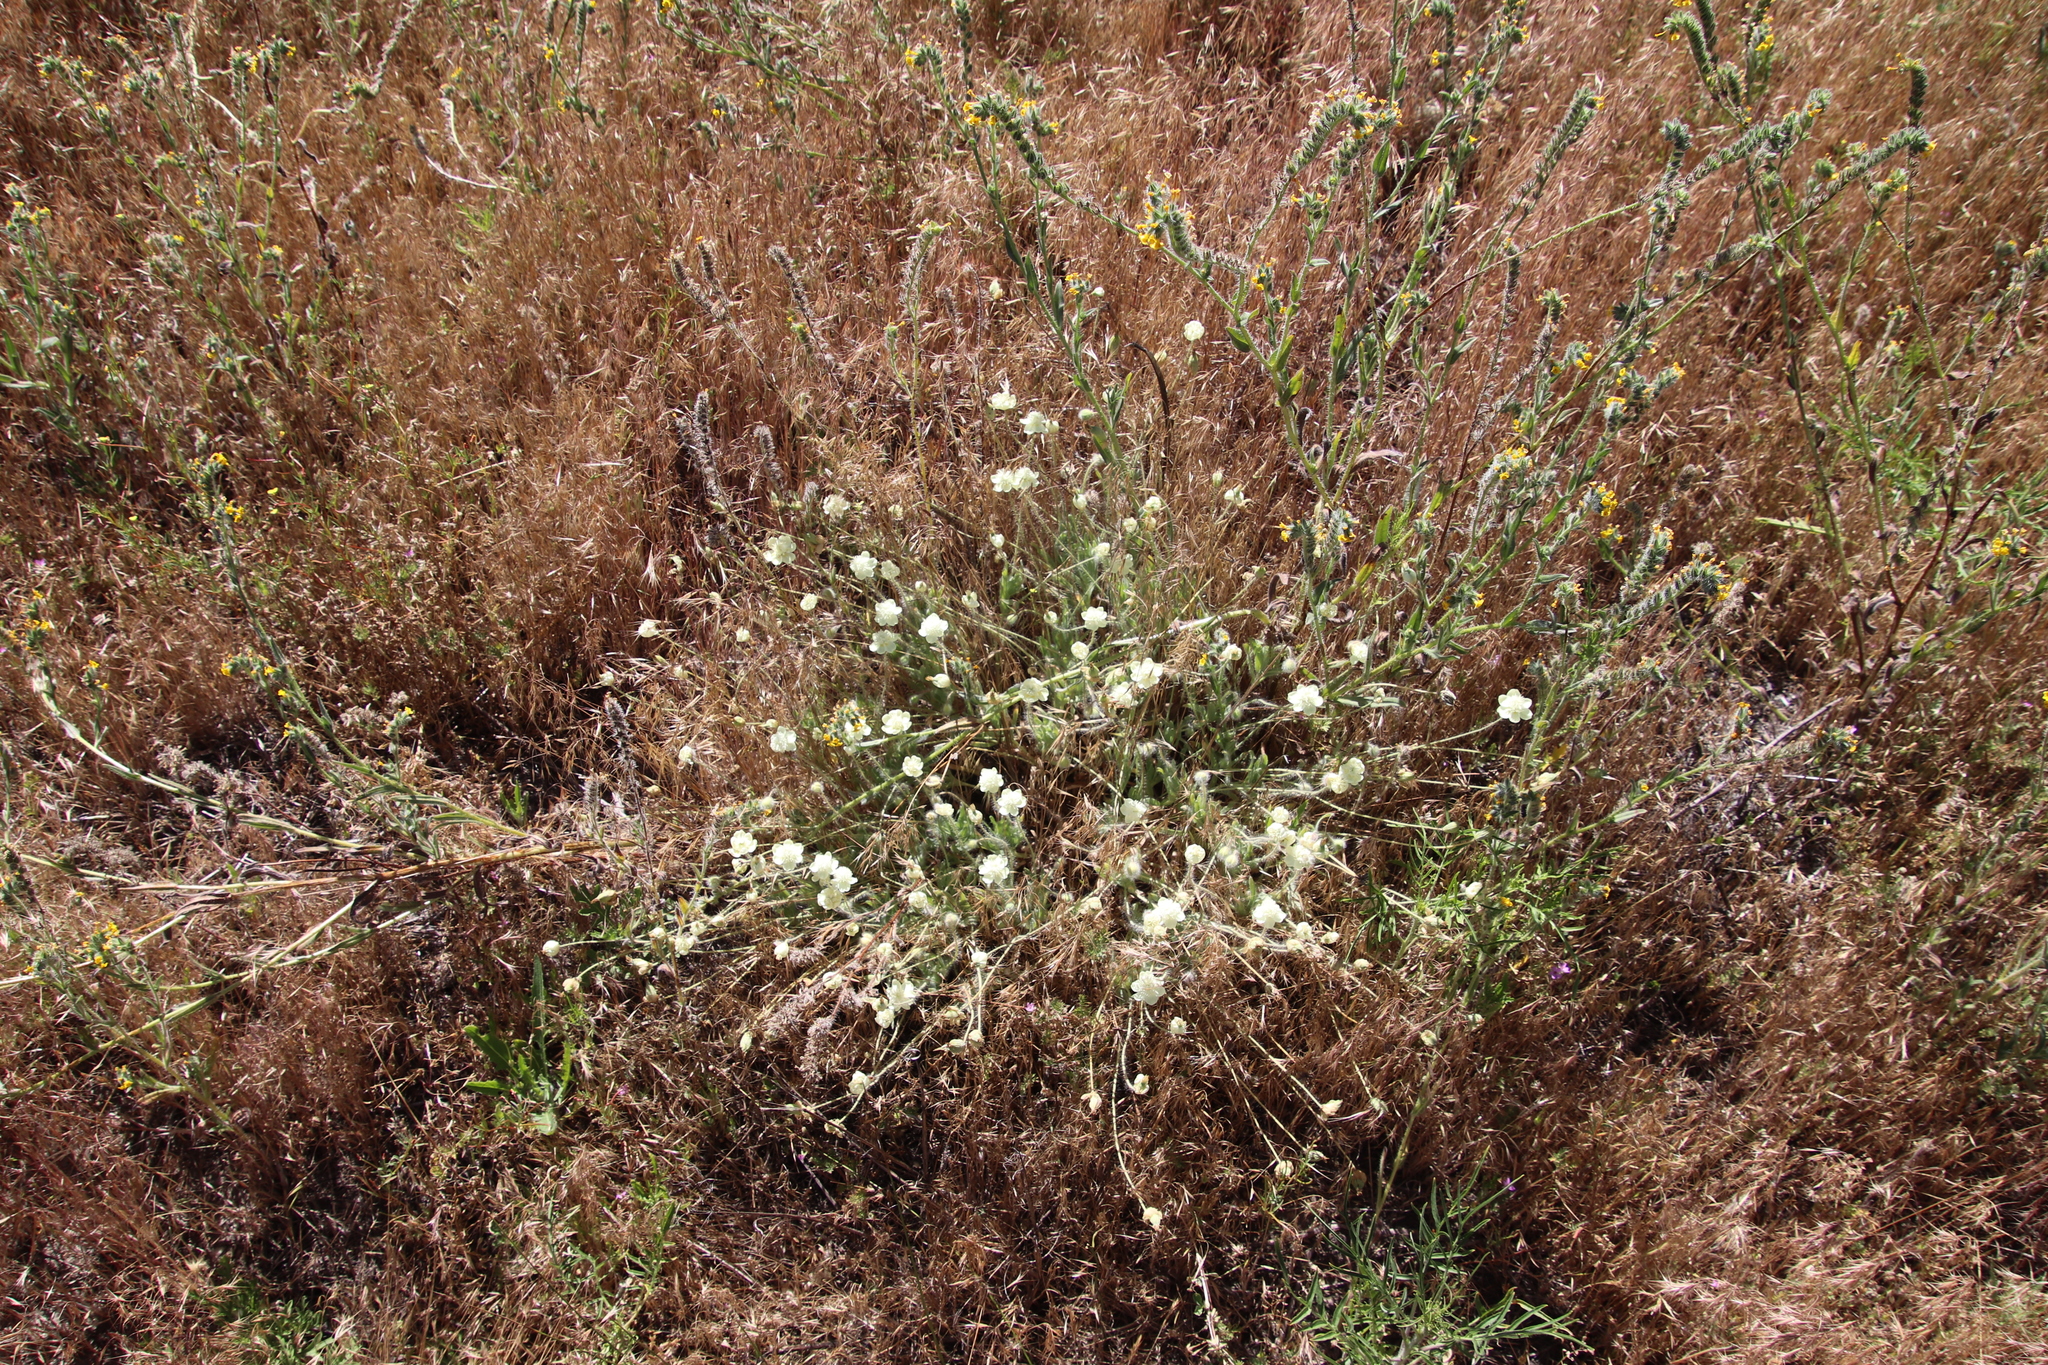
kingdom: Plantae
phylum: Tracheophyta
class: Magnoliopsida
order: Ranunculales
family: Papaveraceae
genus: Platystemon
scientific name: Platystemon californicus
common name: Cream-cups
